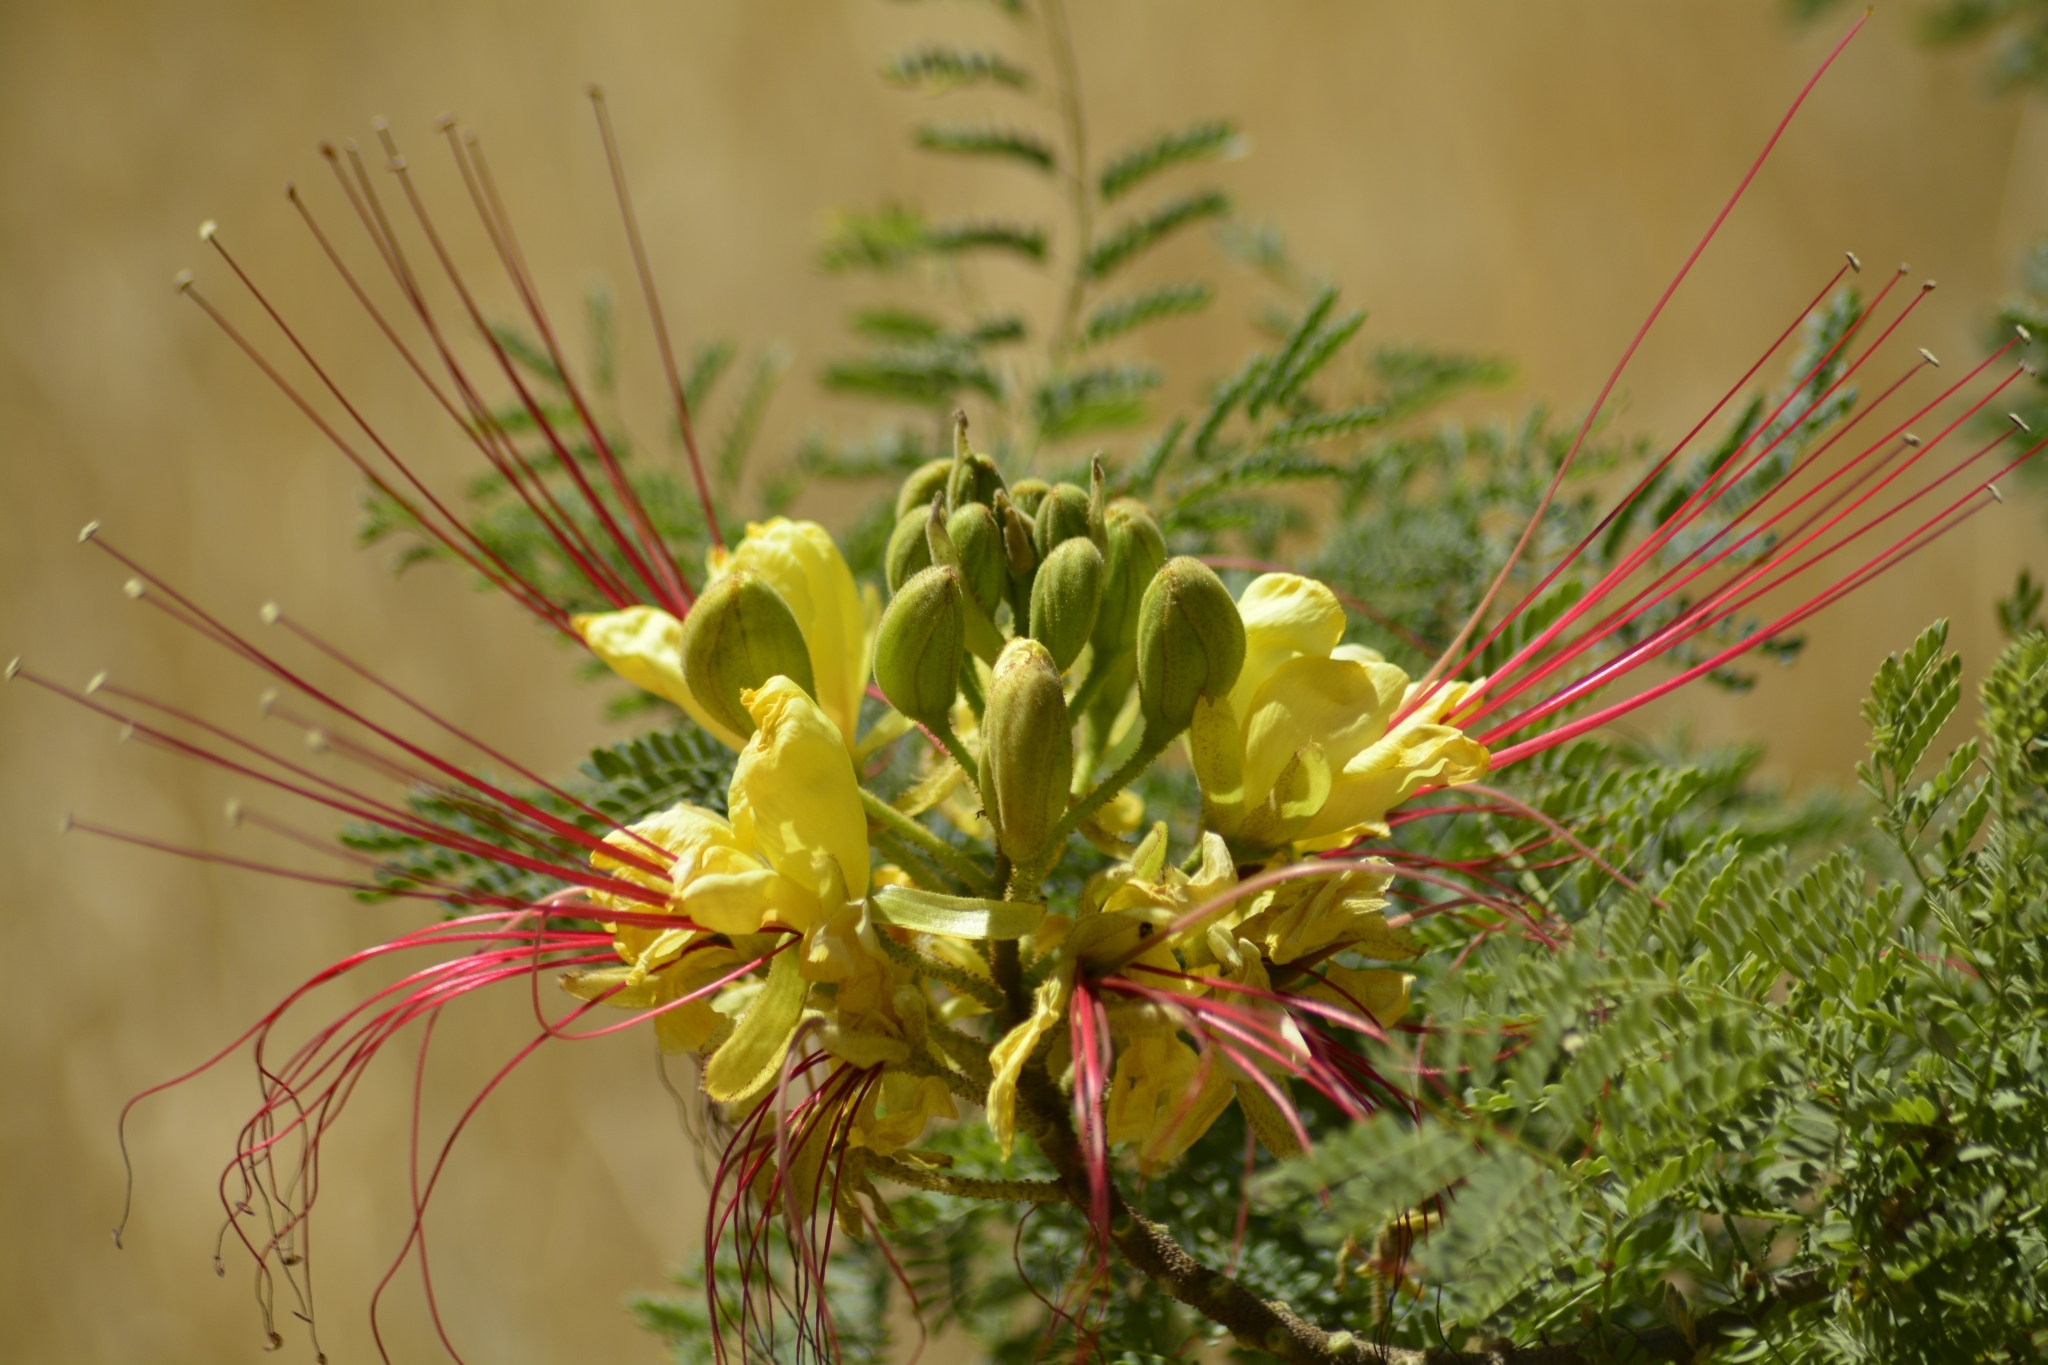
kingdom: Plantae
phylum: Tracheophyta
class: Magnoliopsida
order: Fabales
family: Fabaceae
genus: Erythrostemon
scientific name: Erythrostemon gilliesii
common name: Bird-of-paradise shrub
